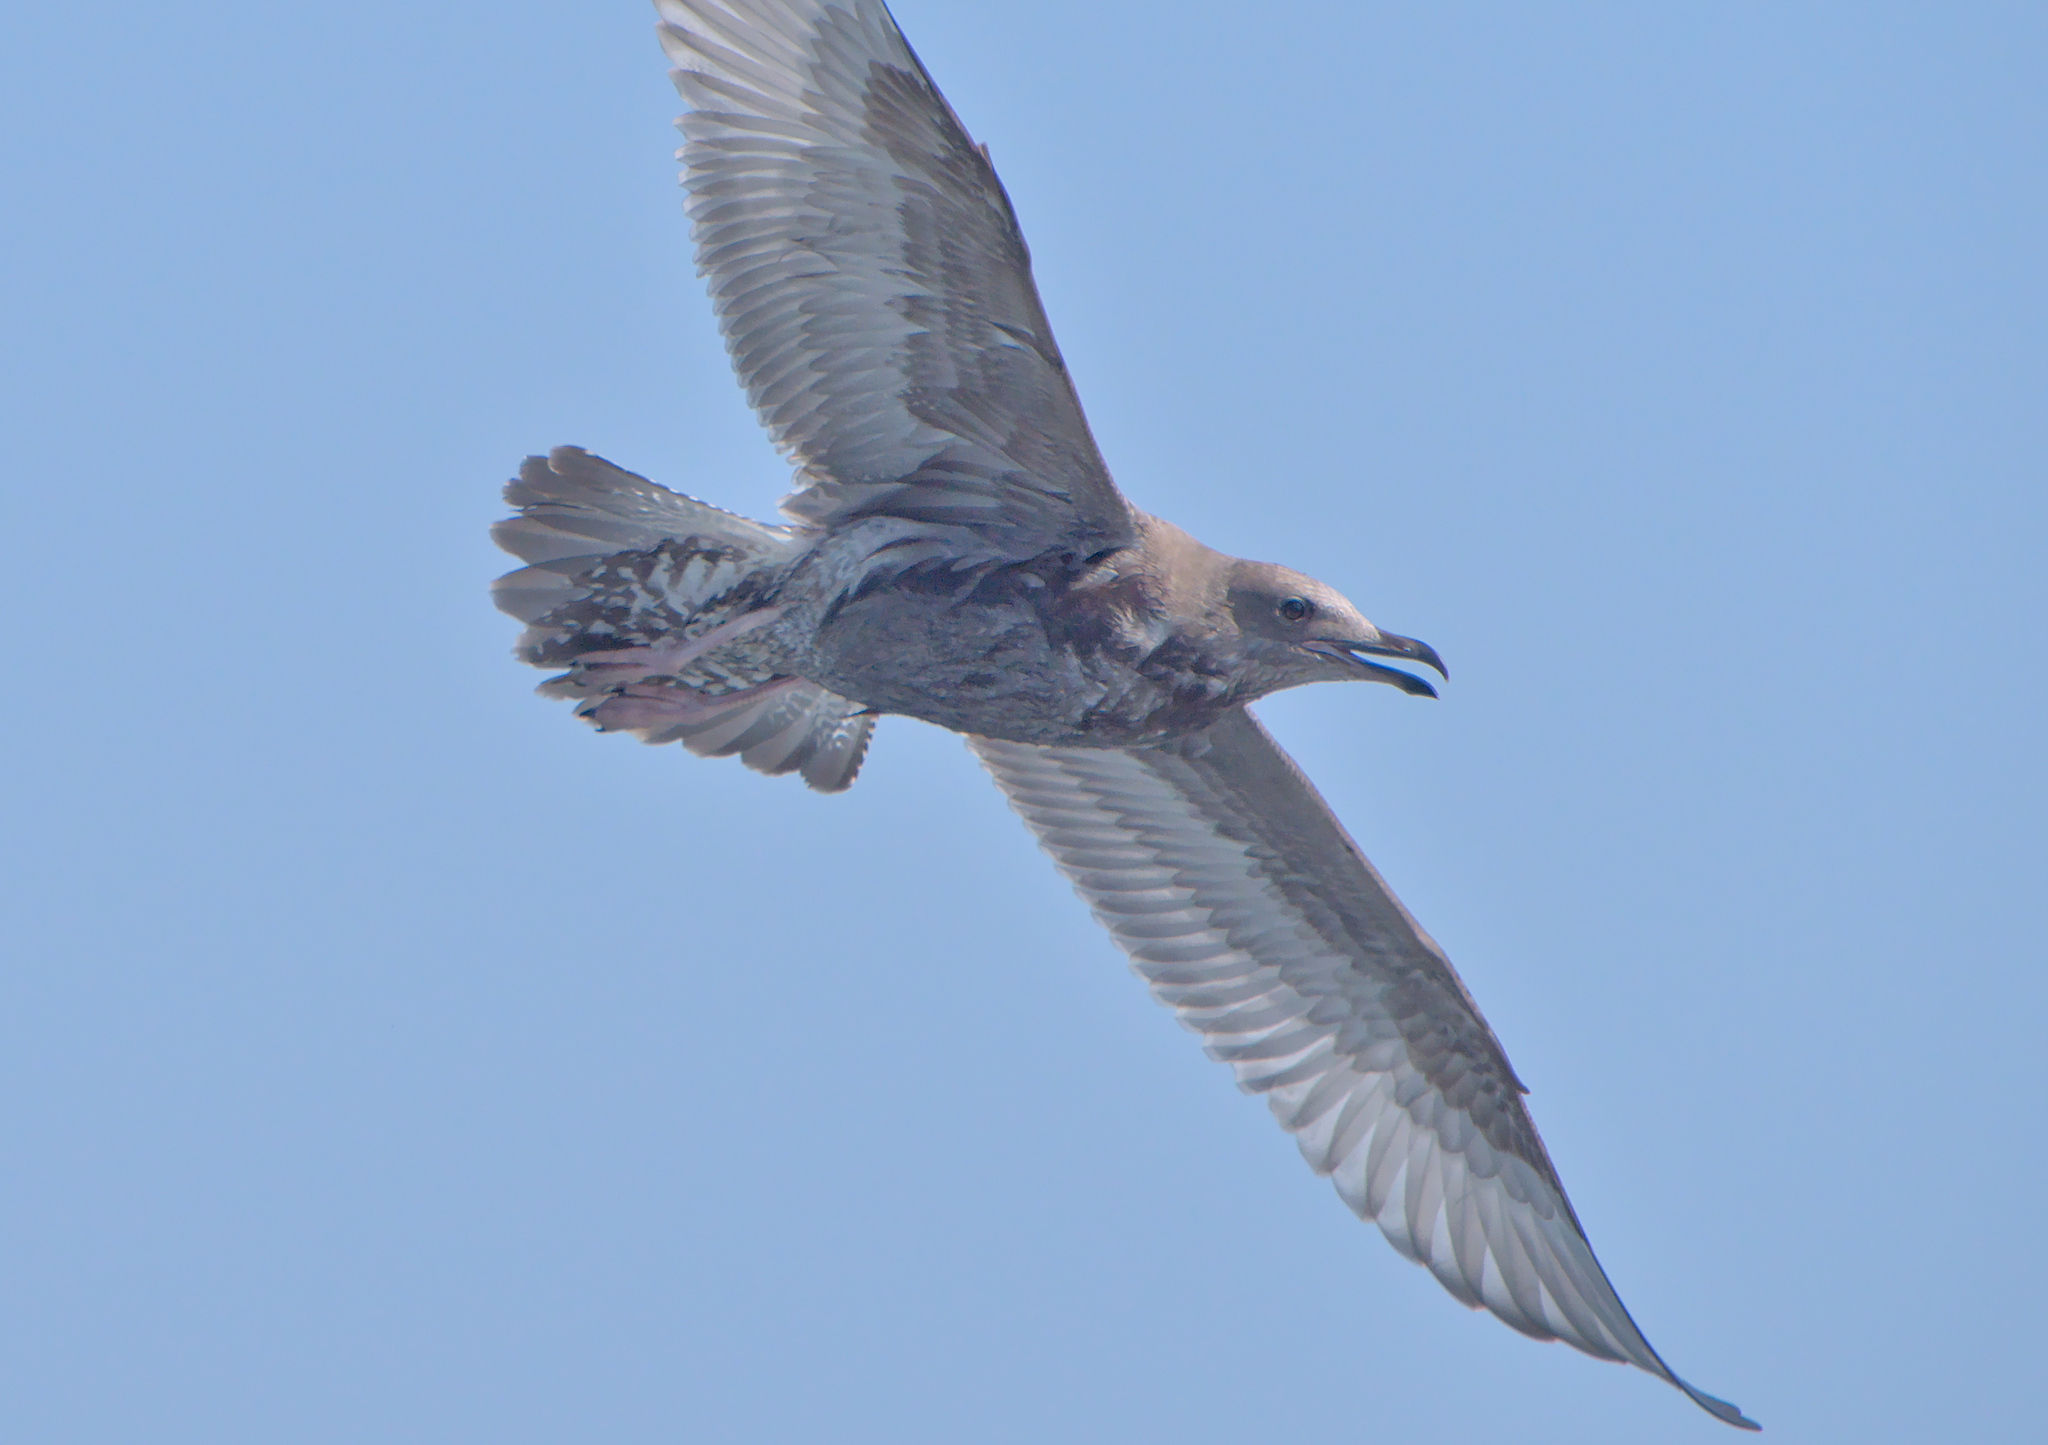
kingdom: Animalia
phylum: Chordata
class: Aves
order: Charadriiformes
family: Laridae
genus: Larus
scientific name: Larus argentatus
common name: Herring gull
